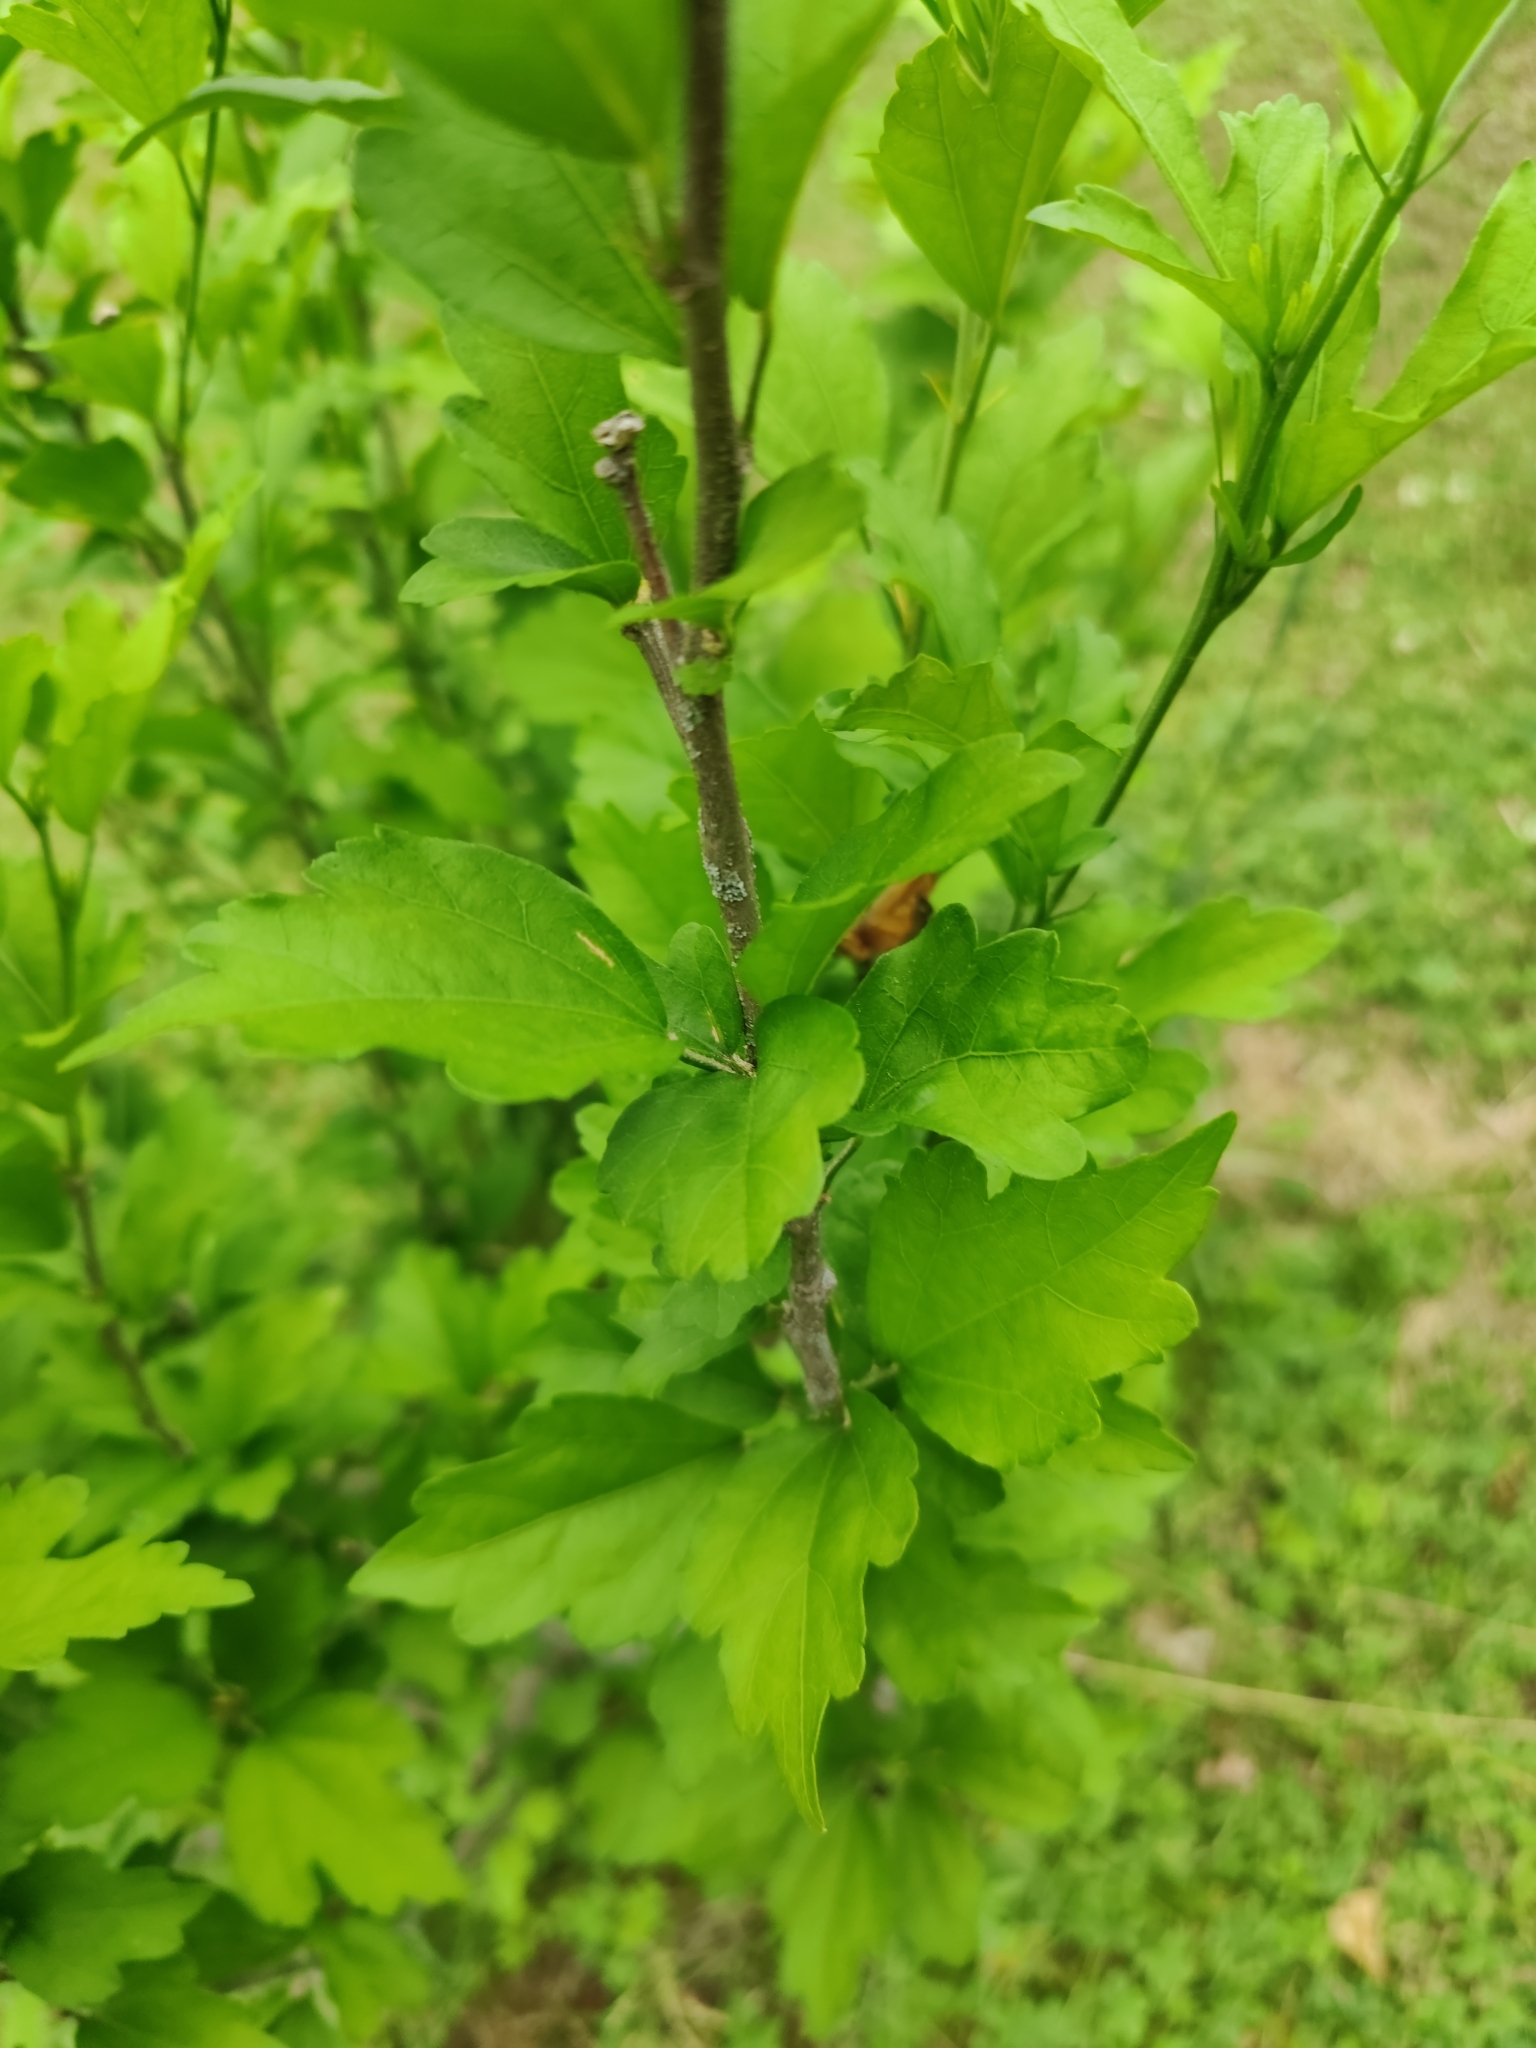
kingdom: Plantae
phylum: Tracheophyta
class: Magnoliopsida
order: Malvales
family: Malvaceae
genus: Hibiscus
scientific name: Hibiscus syriacus
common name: Syrian ketmia
